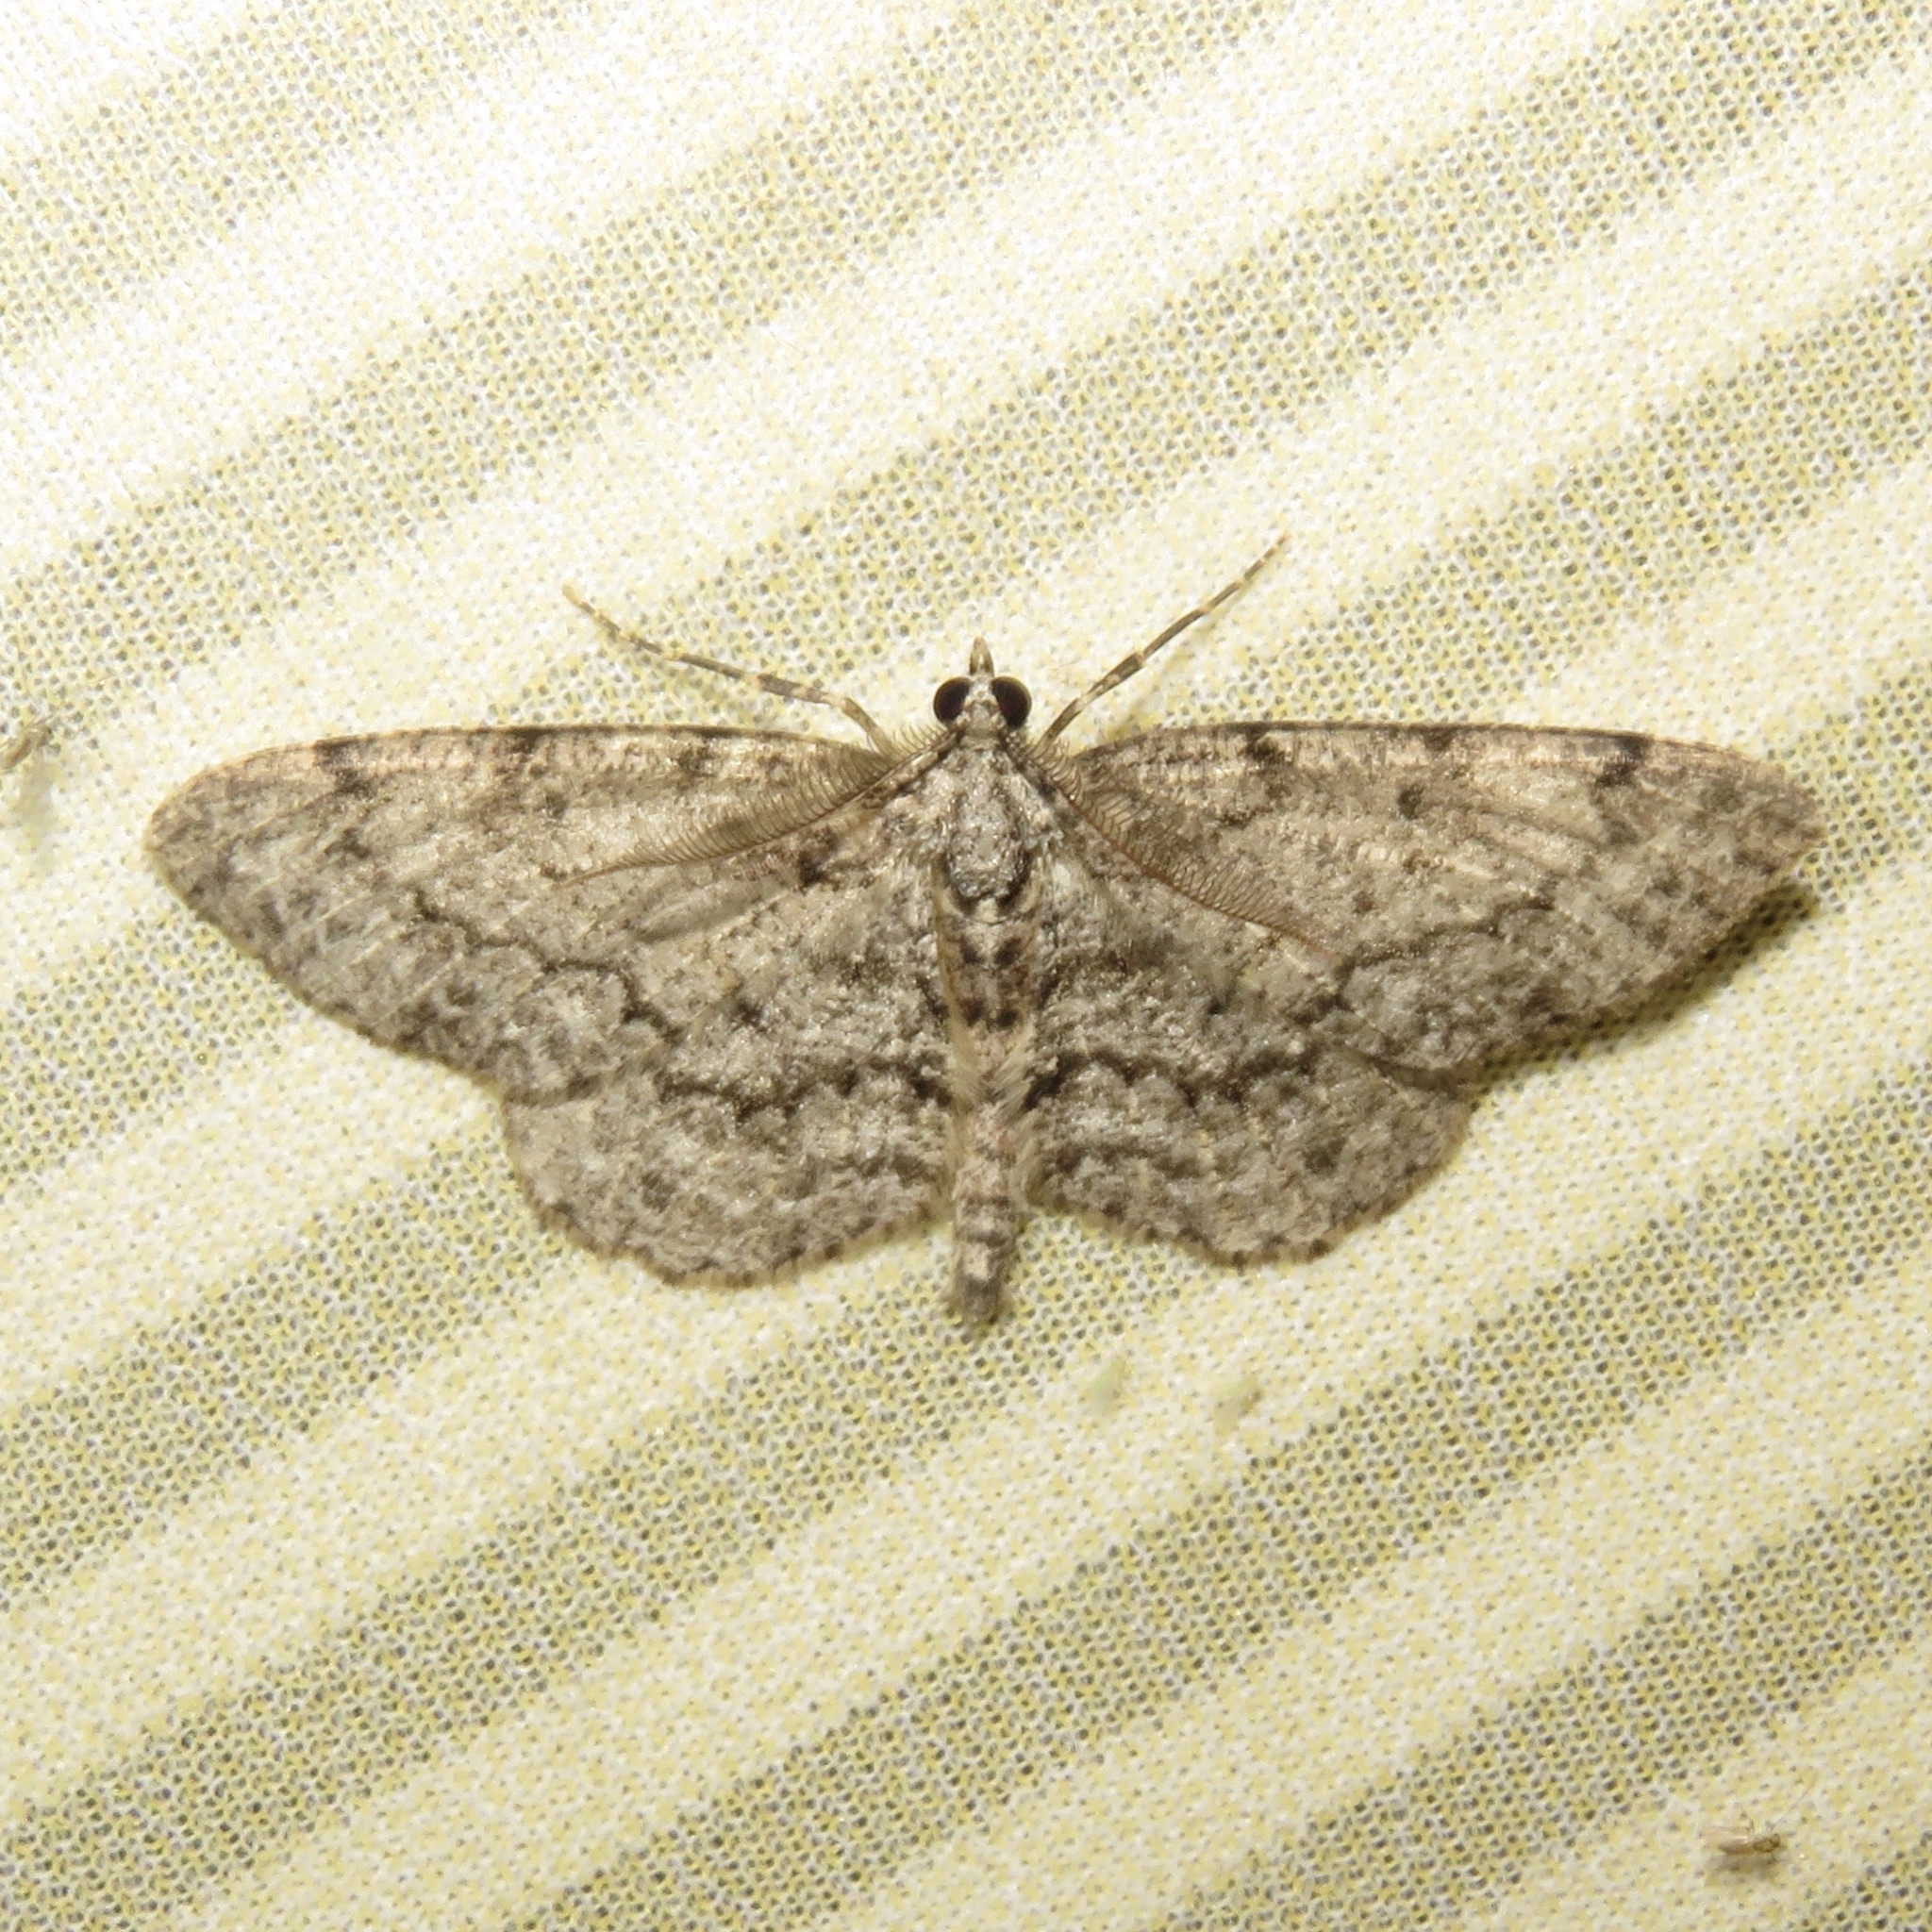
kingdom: Animalia
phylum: Arthropoda
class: Insecta
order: Lepidoptera
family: Geometridae
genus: Protoboarmia
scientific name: Protoboarmia porcelaria
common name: Porcelain gray
